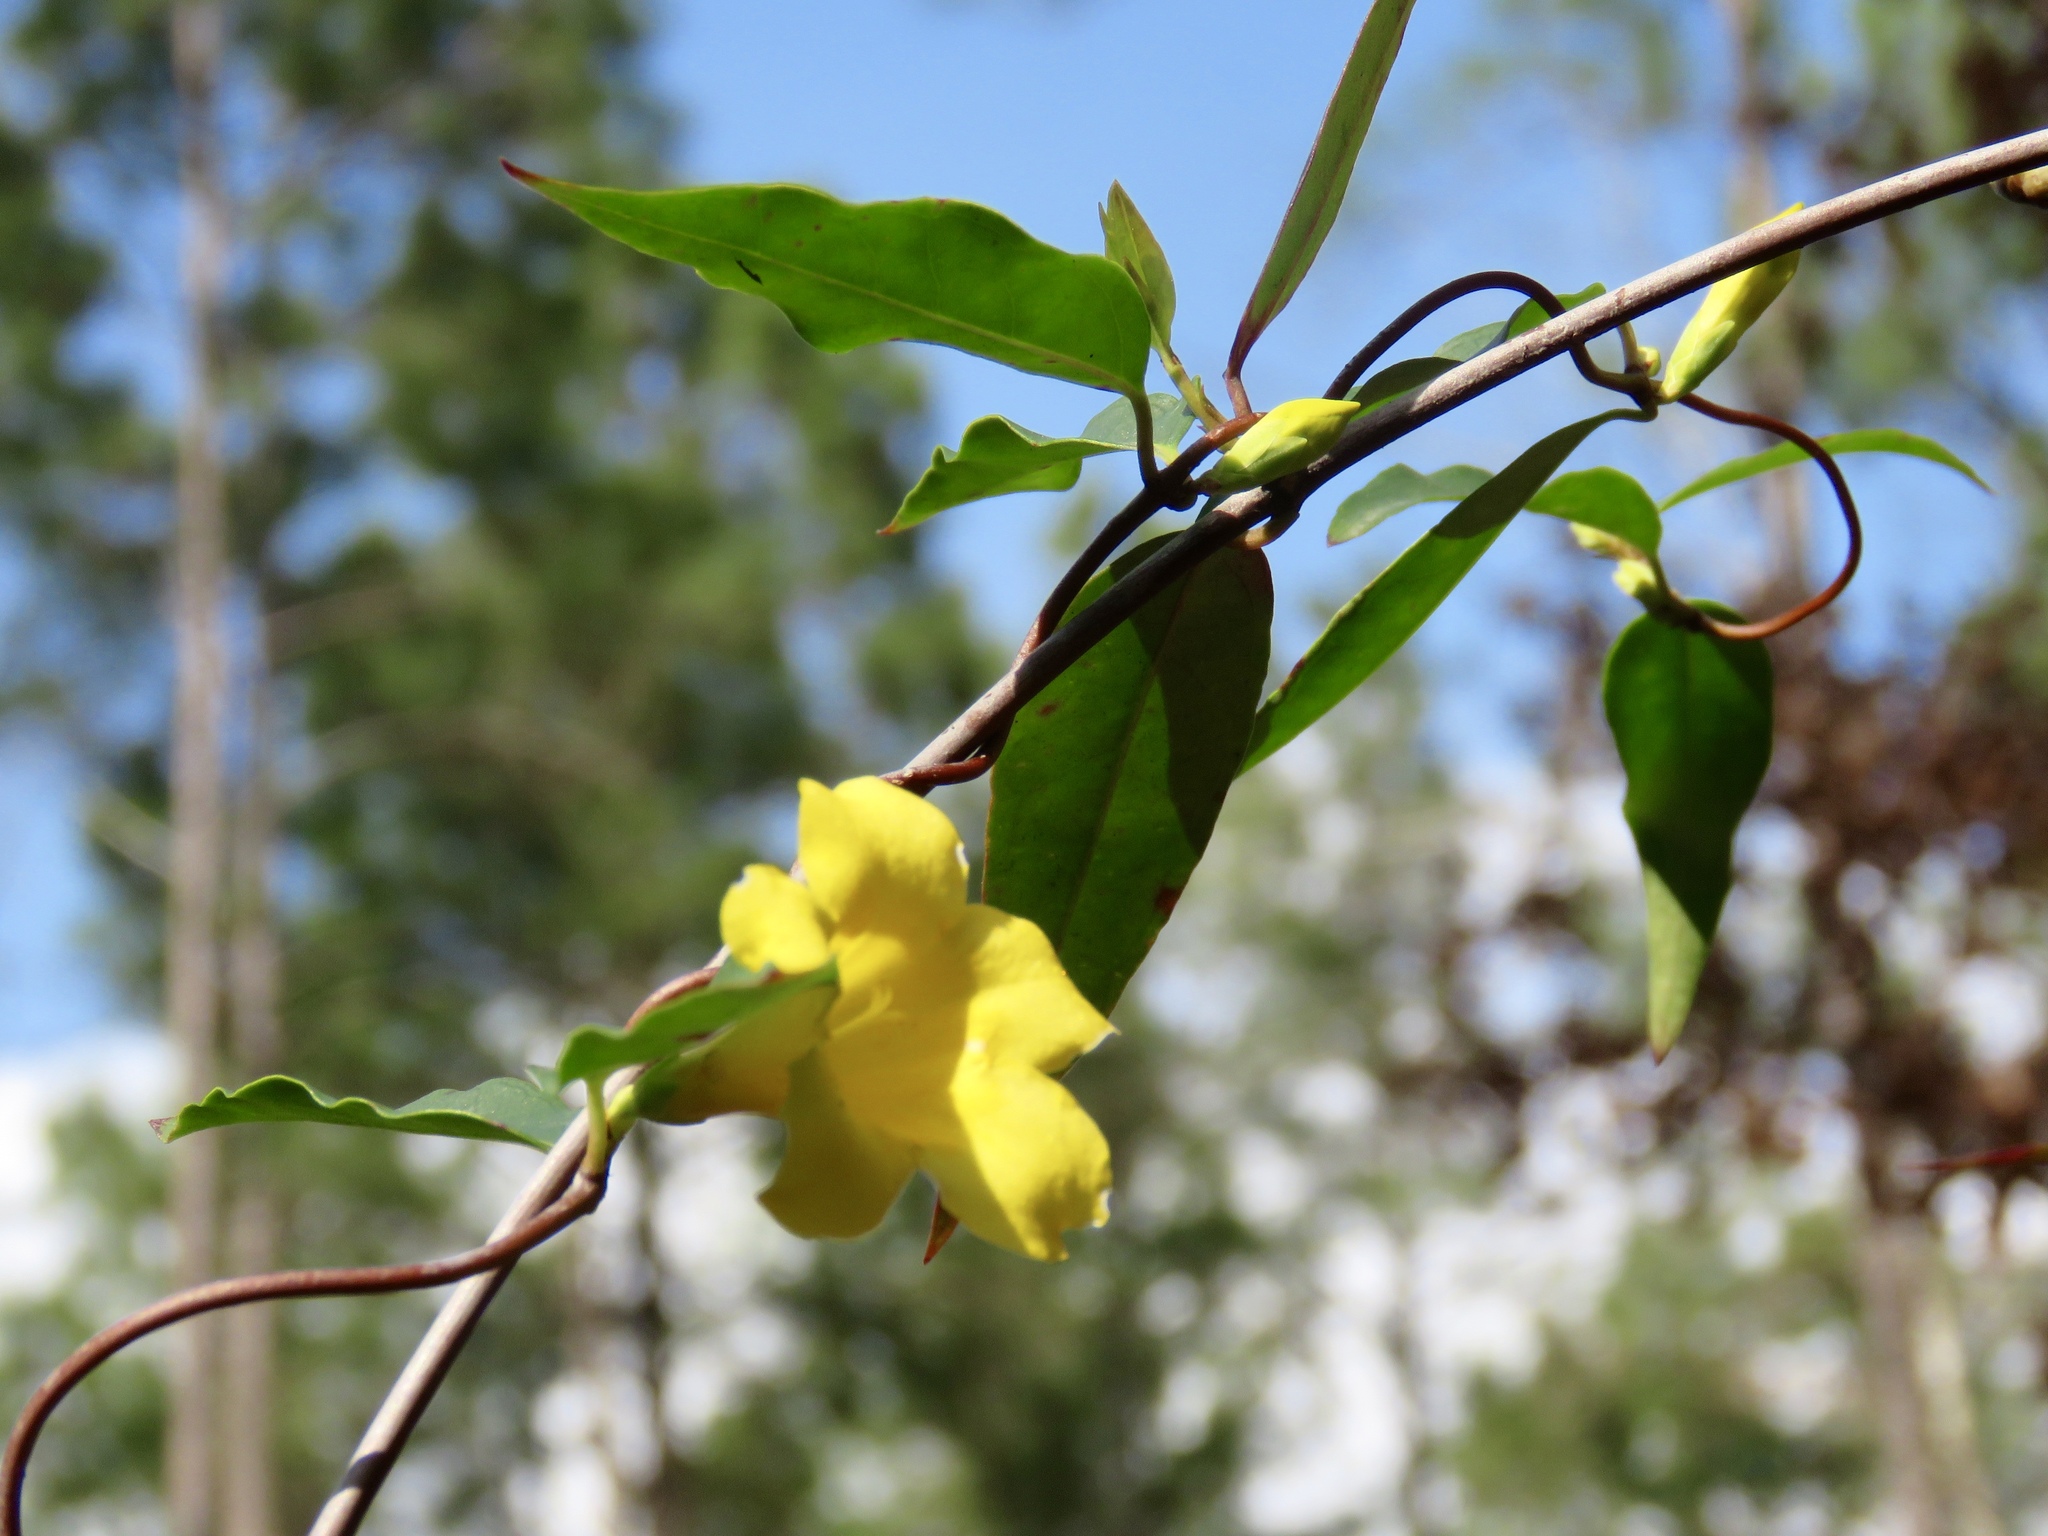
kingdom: Plantae
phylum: Tracheophyta
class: Magnoliopsida
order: Gentianales
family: Gelsemiaceae
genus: Gelsemium
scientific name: Gelsemium sempervirens
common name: Carolina-jasmine
